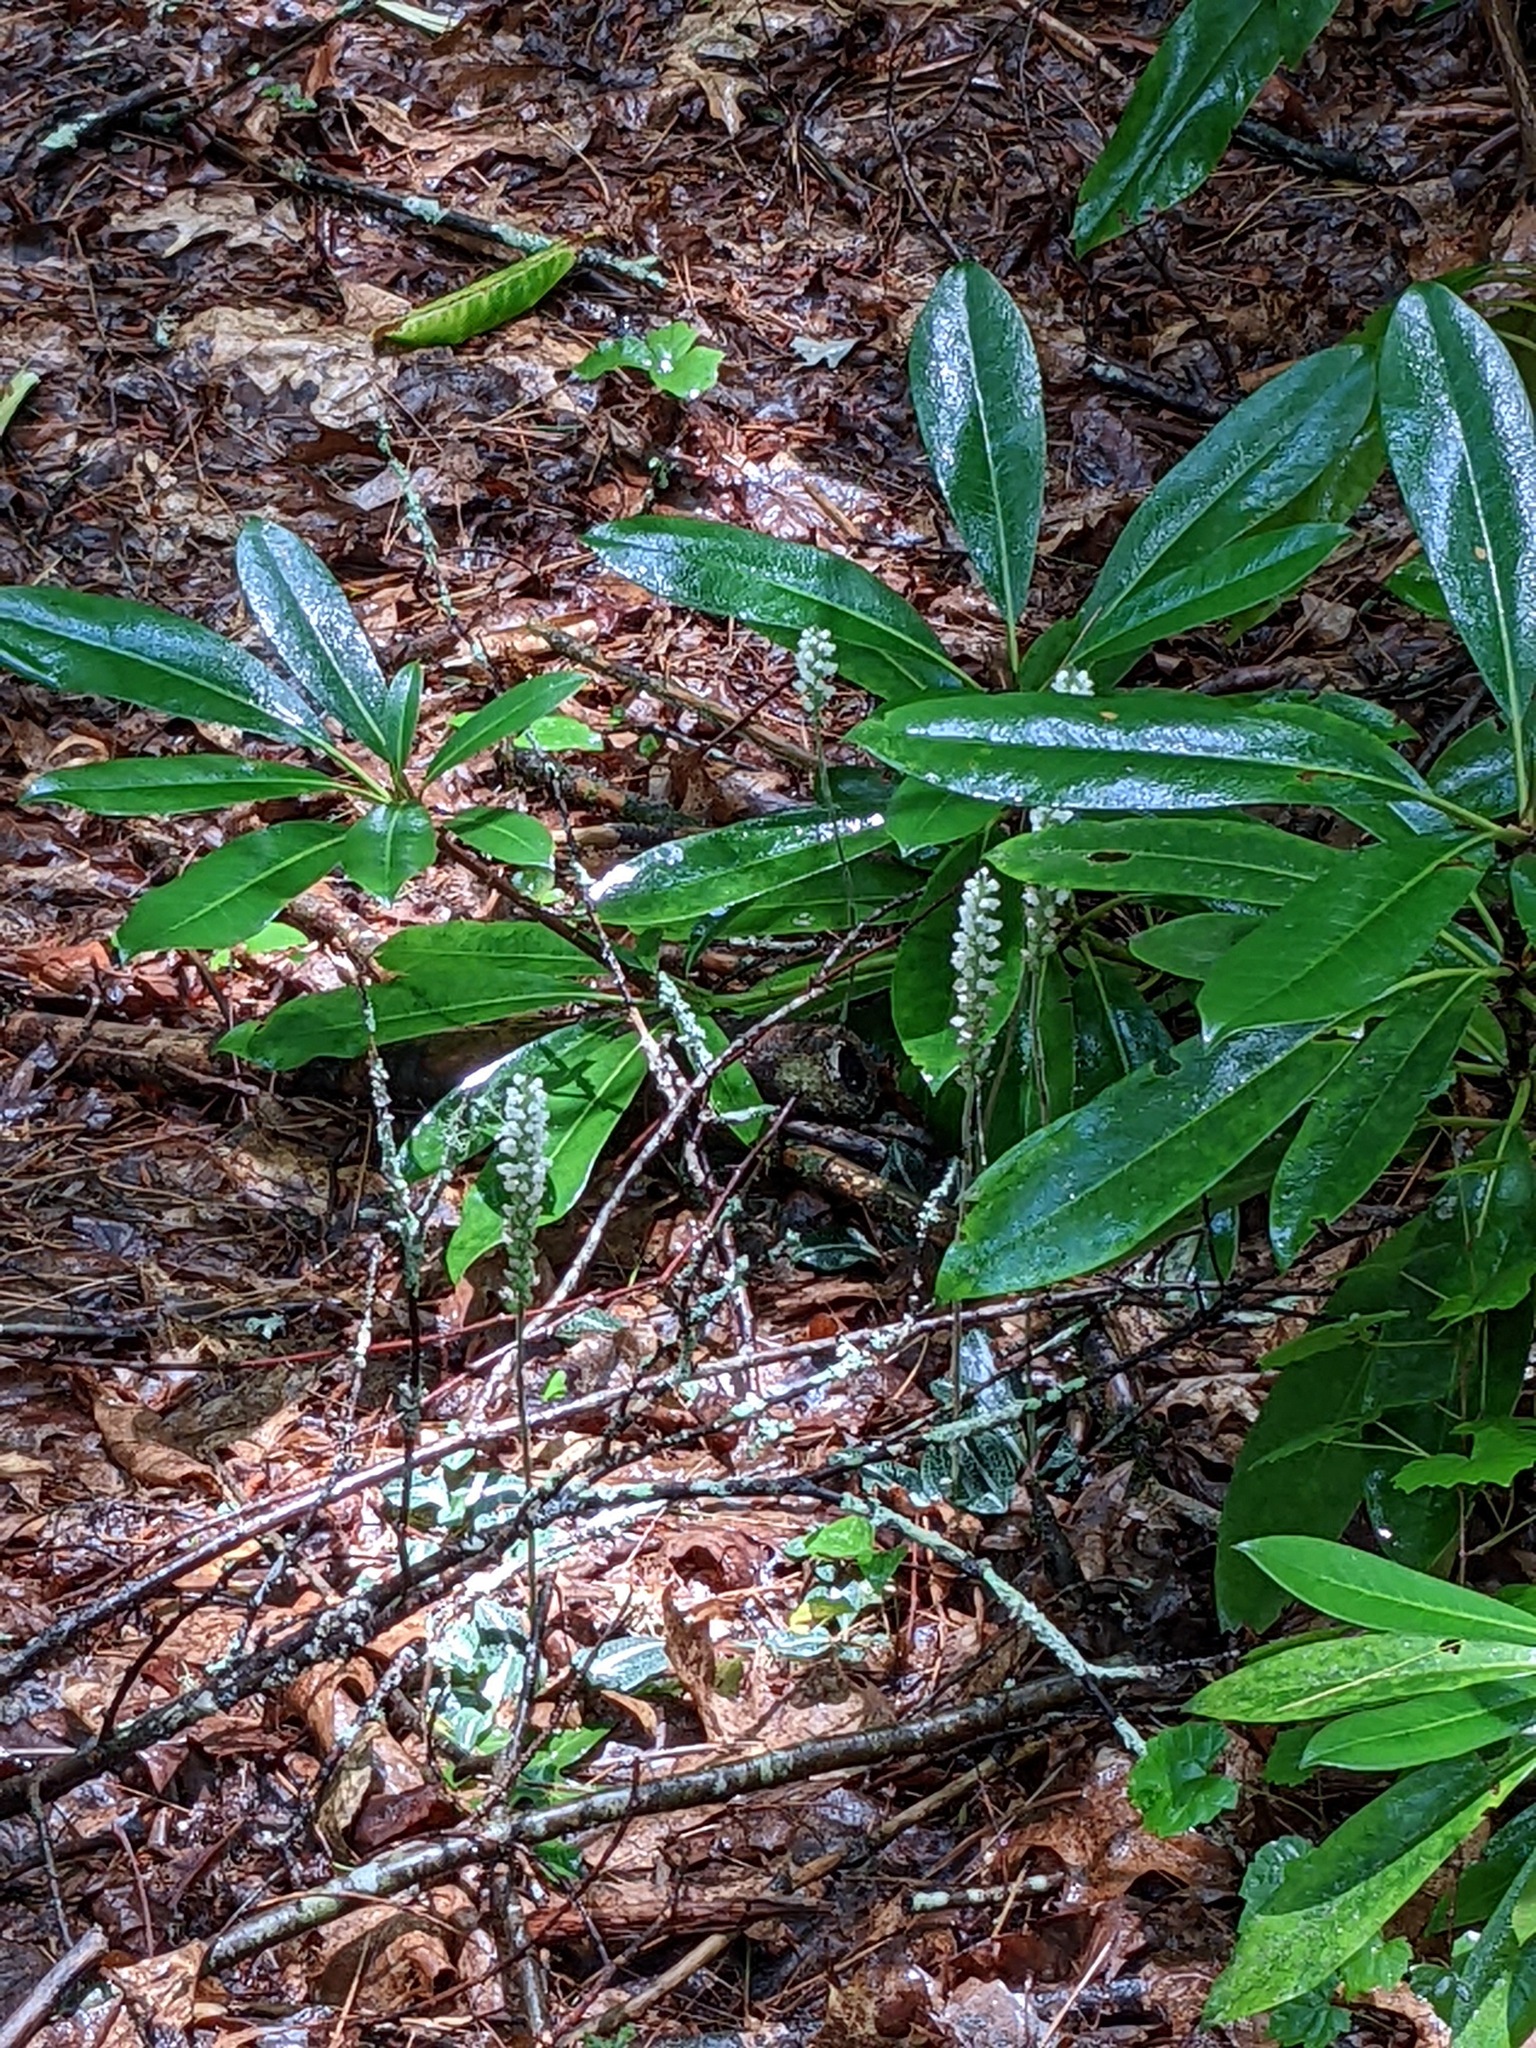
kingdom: Plantae
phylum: Tracheophyta
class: Liliopsida
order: Asparagales
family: Orchidaceae
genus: Goodyera
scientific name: Goodyera pubescens
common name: Downy rattlesnake-plantain
